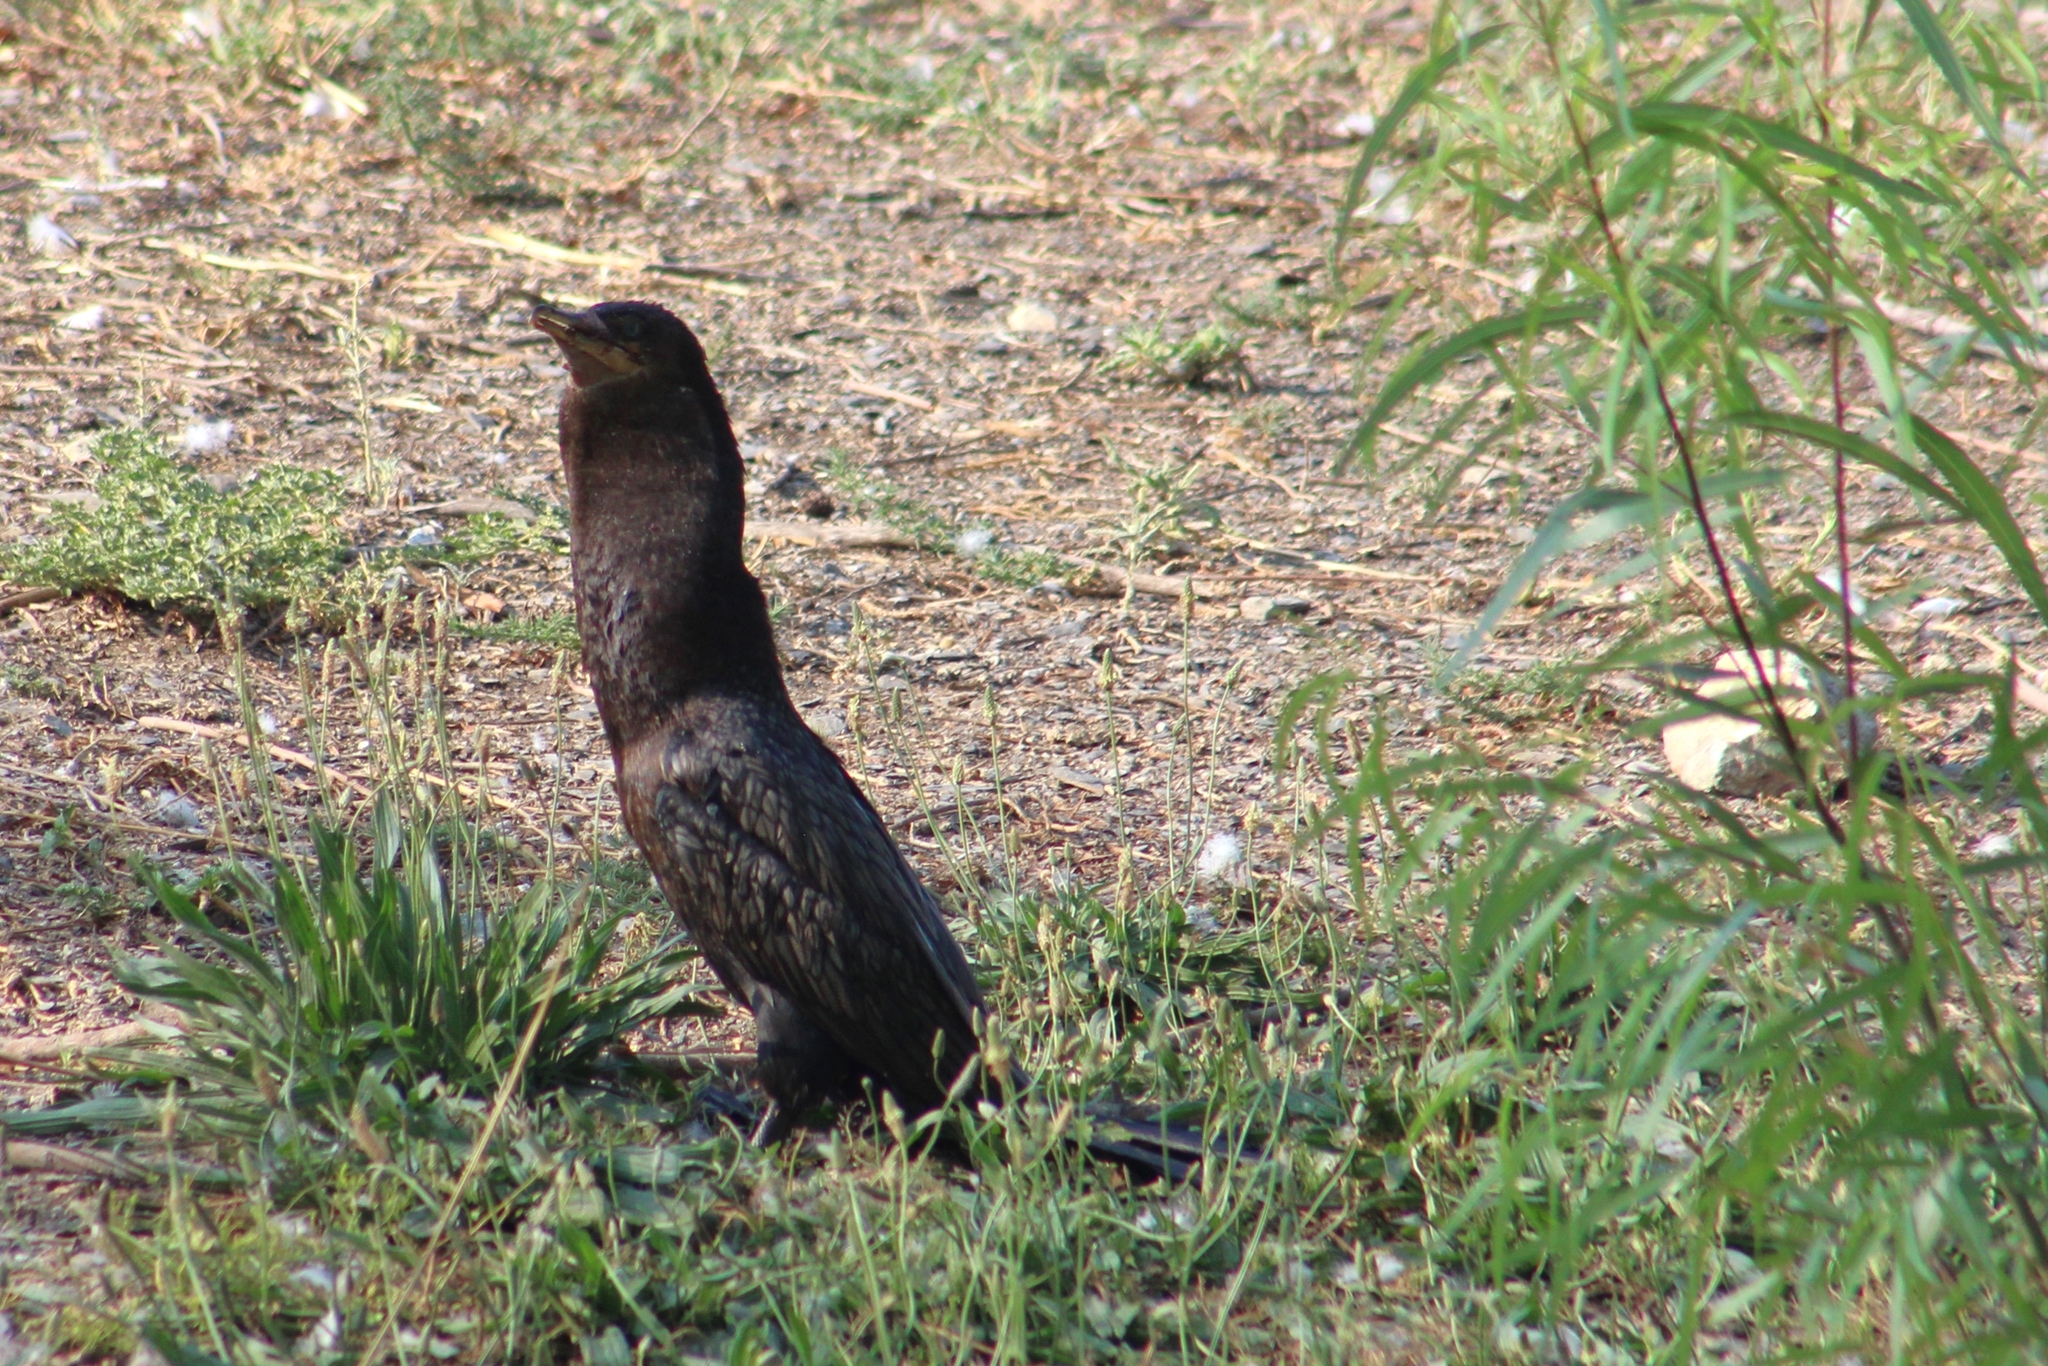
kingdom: Animalia
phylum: Chordata
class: Aves
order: Suliformes
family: Phalacrocoracidae
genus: Phalacrocorax
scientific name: Phalacrocorax brasilianus
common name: Neotropic cormorant
